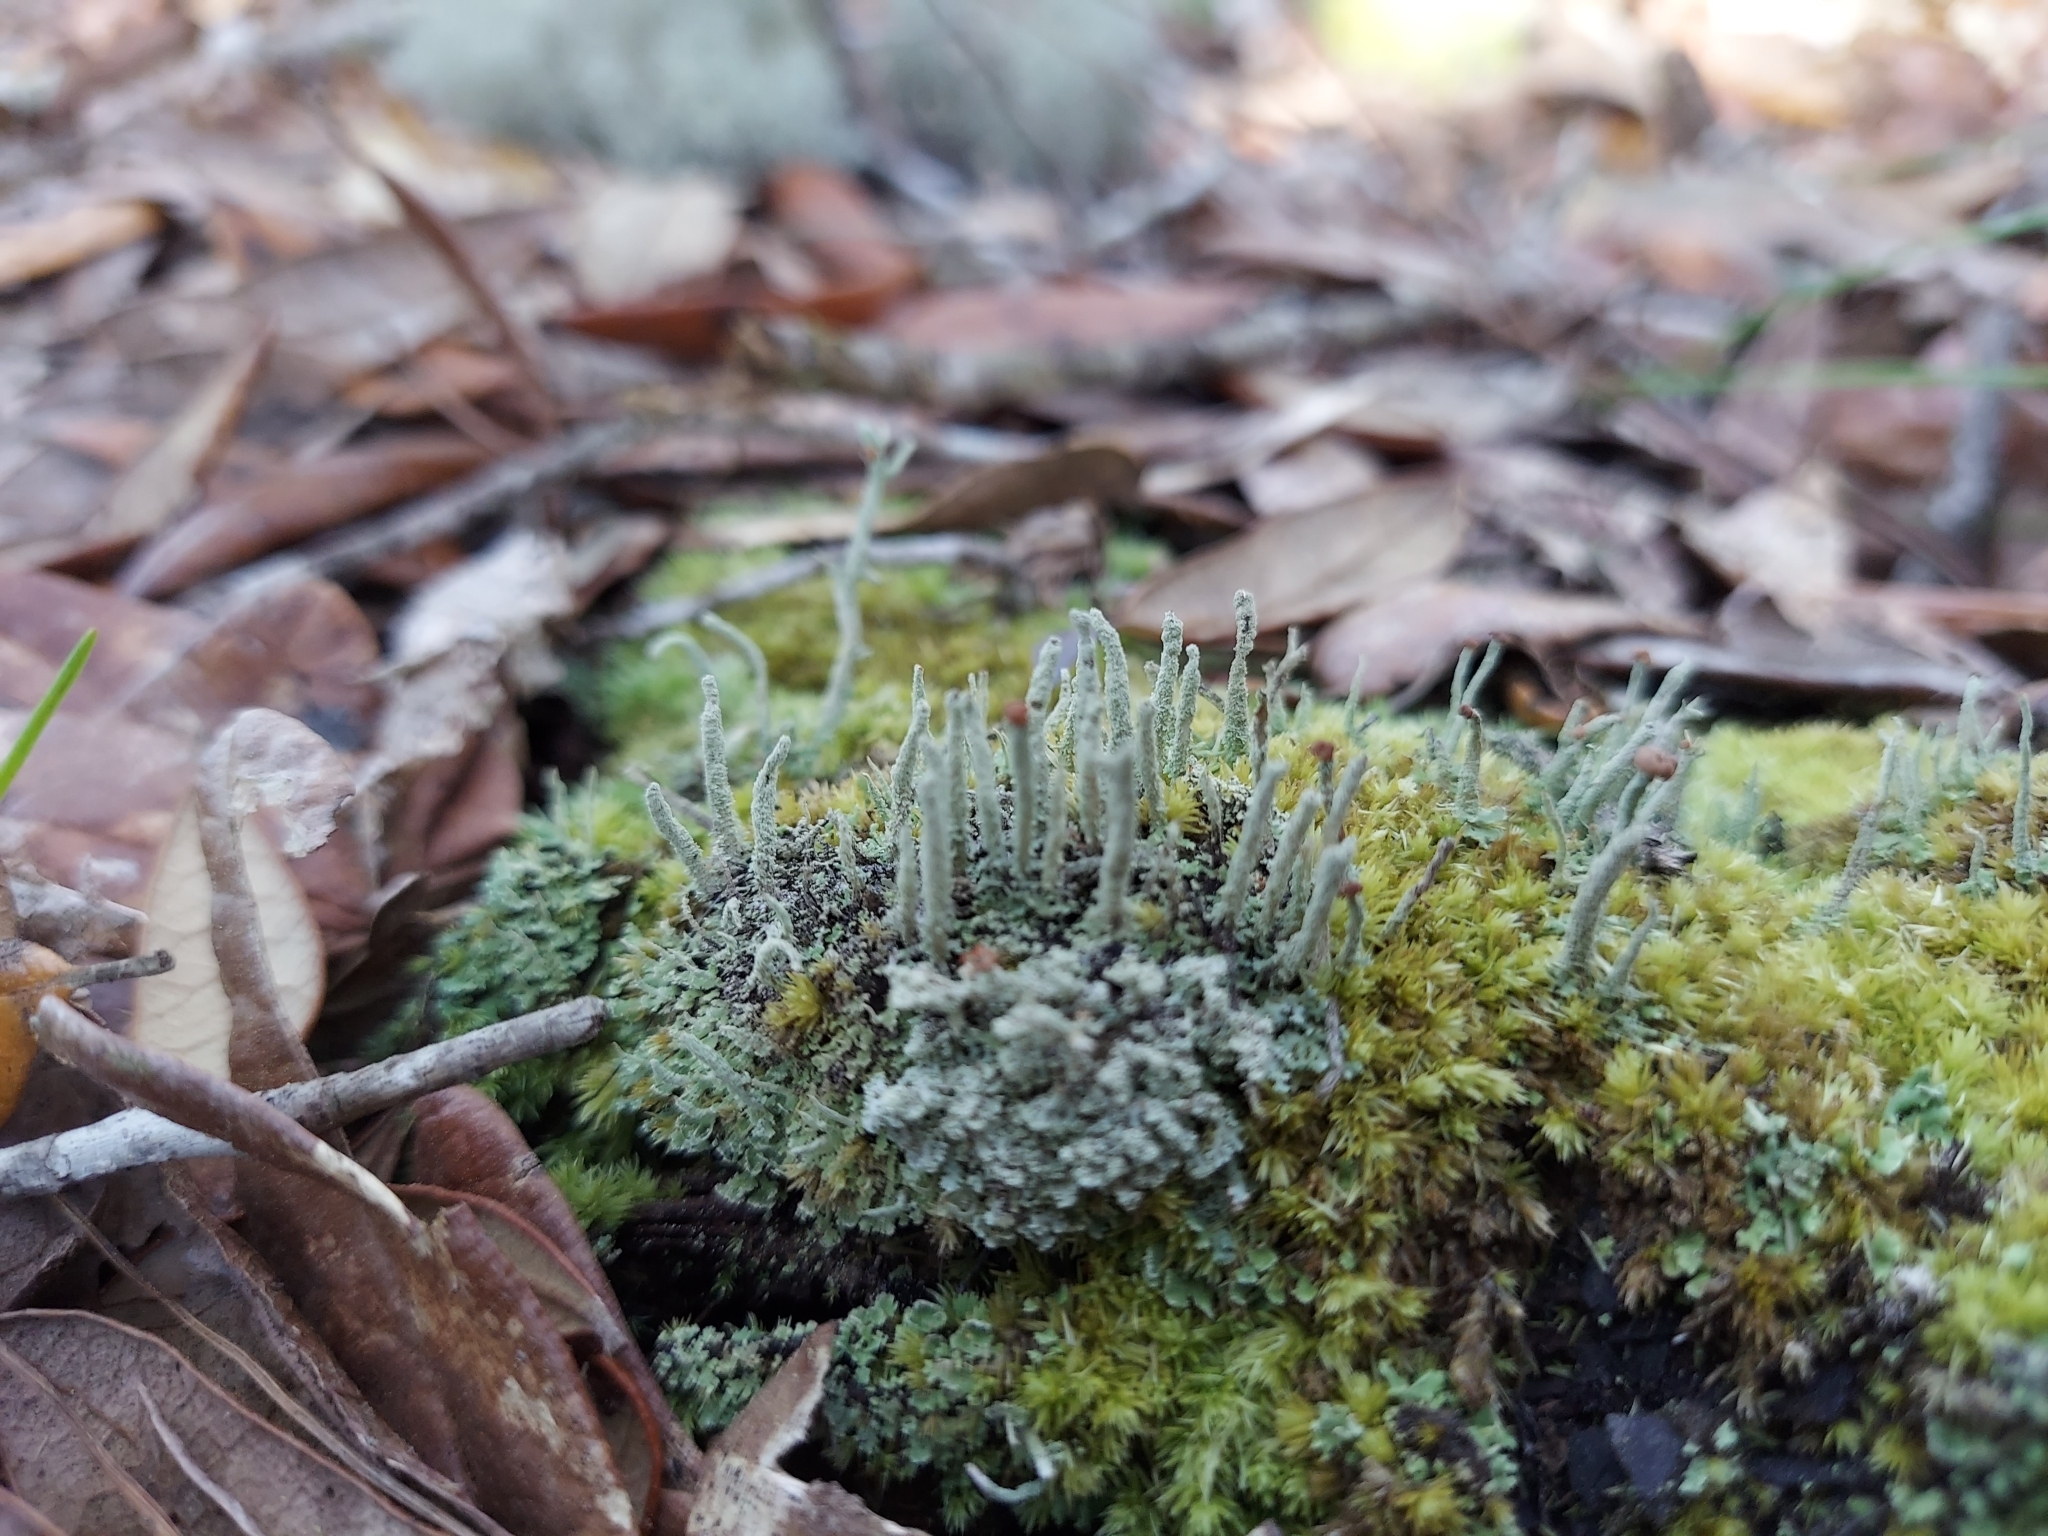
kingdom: Fungi
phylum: Ascomycota
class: Lecanoromycetes
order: Lecanorales
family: Cladoniaceae
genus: Cladonia
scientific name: Cladonia subradiata
